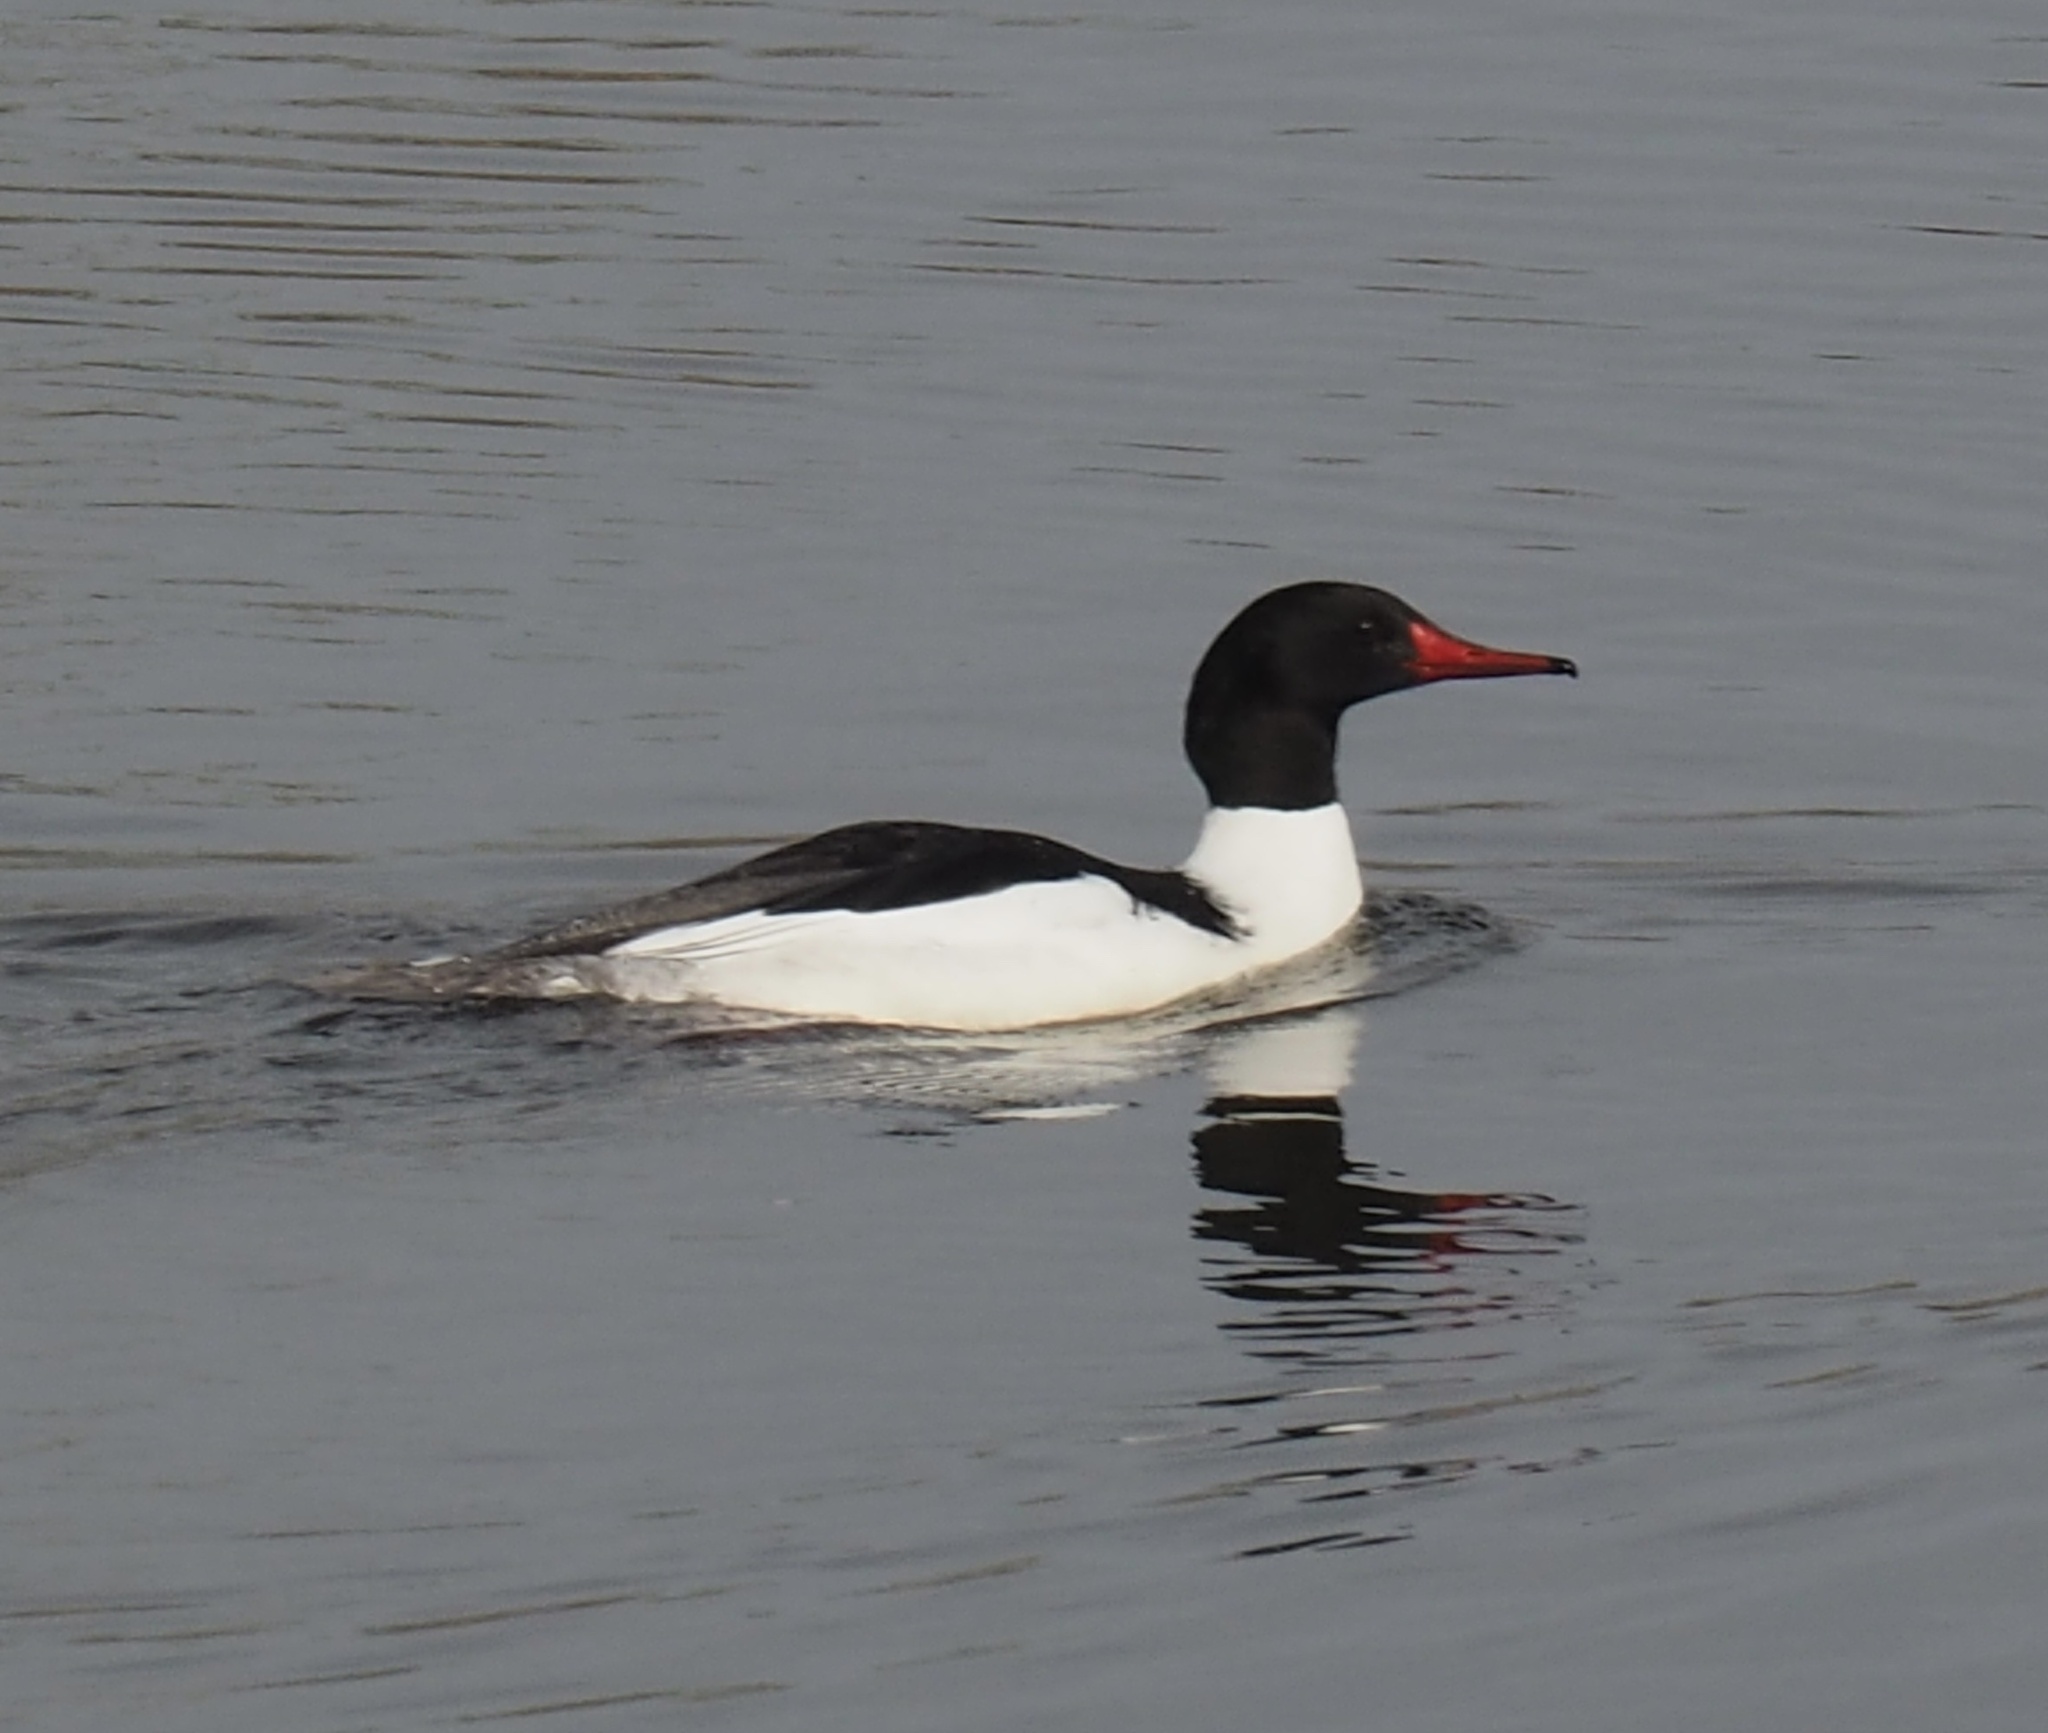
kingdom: Animalia
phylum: Chordata
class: Aves
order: Anseriformes
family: Anatidae
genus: Mergus
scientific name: Mergus merganser
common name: Common merganser
